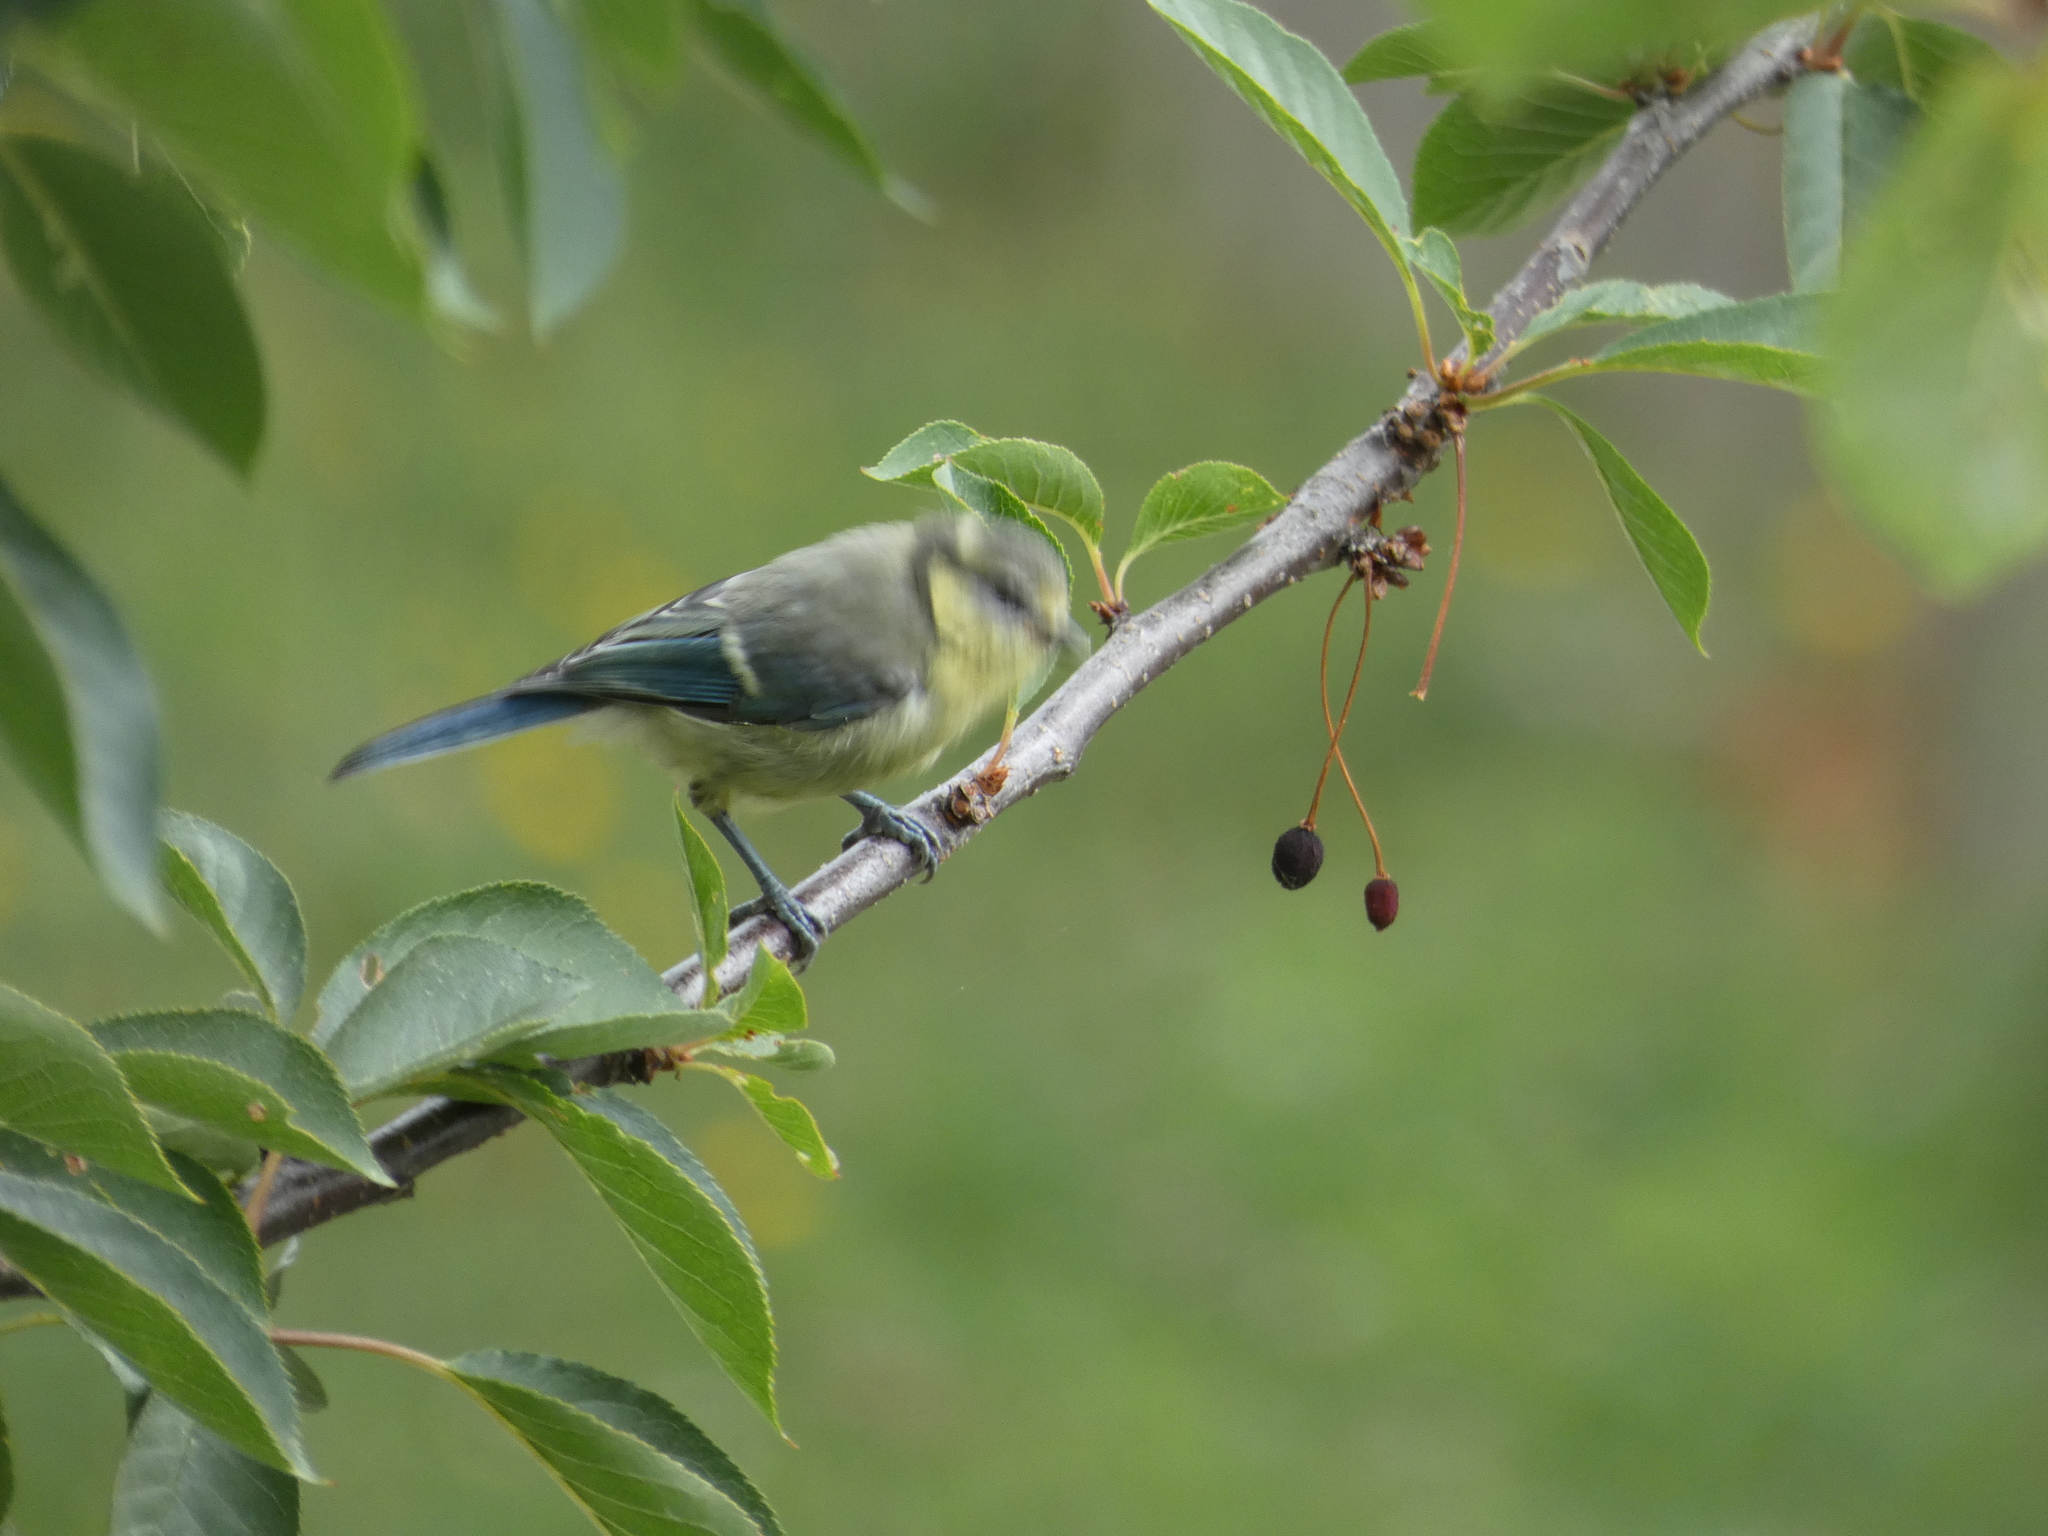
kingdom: Animalia
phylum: Chordata
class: Aves
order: Passeriformes
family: Paridae
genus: Cyanistes
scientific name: Cyanistes caeruleus
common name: Eurasian blue tit
